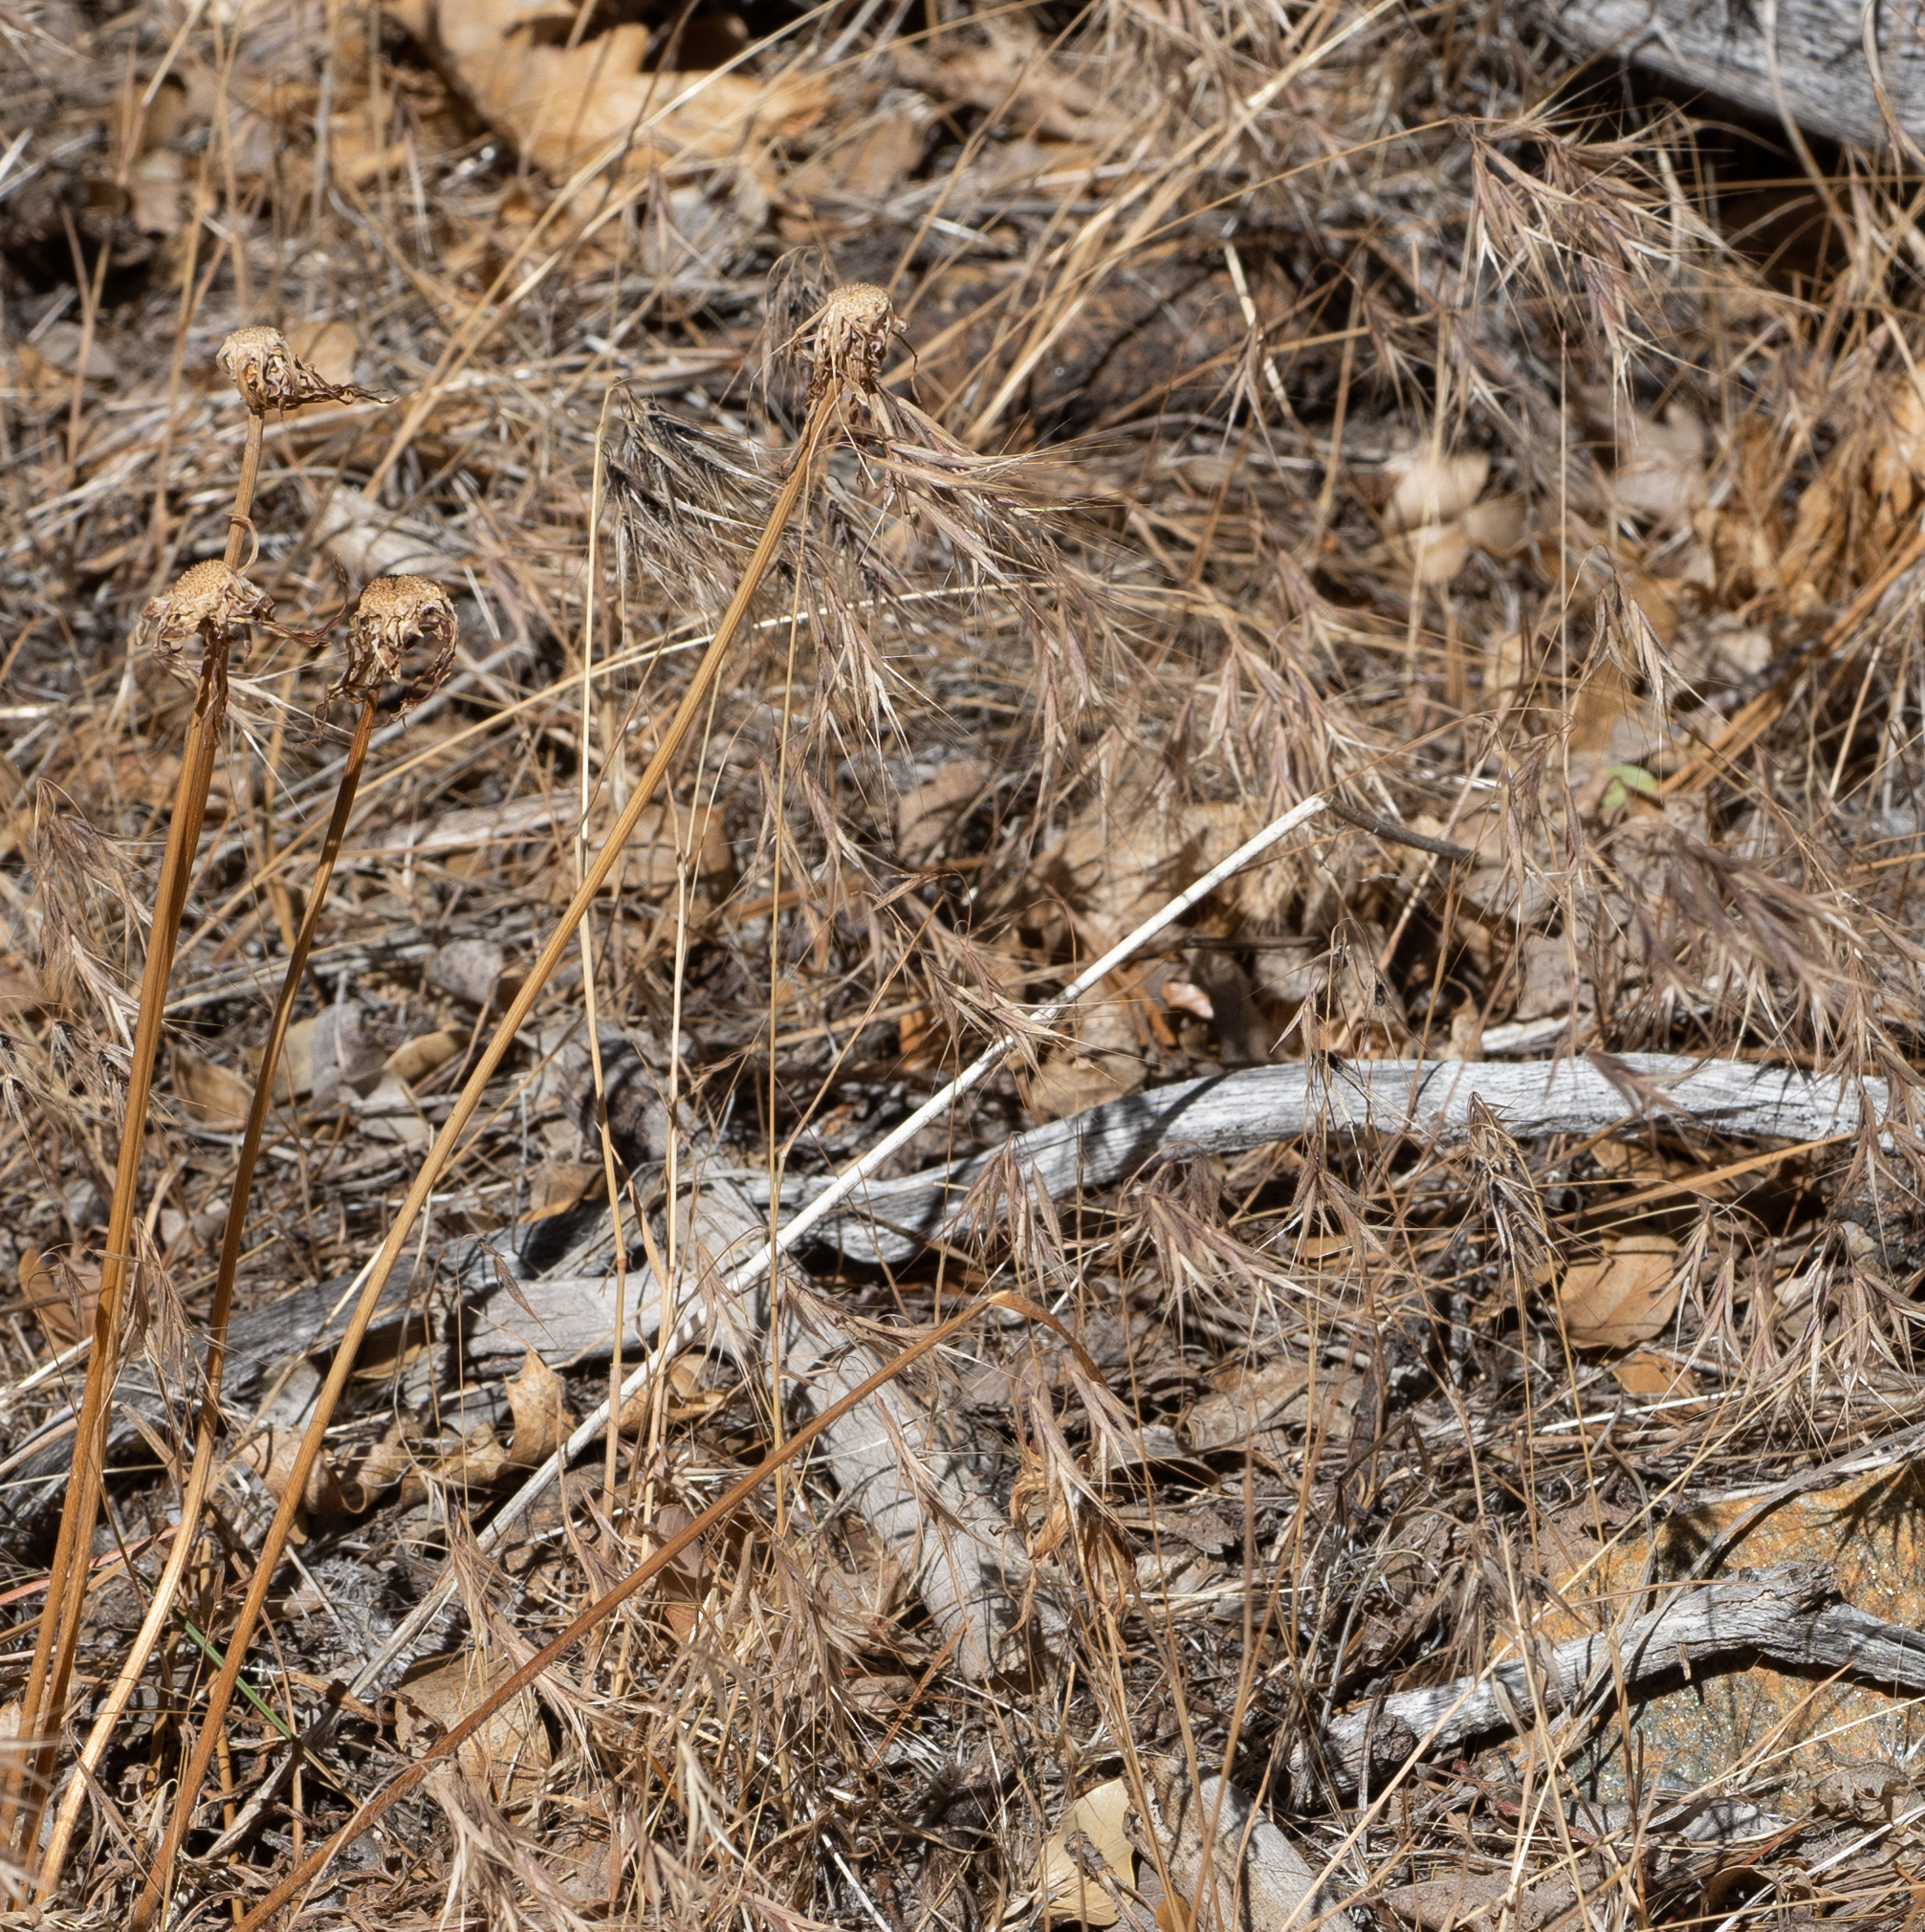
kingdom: Plantae
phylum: Tracheophyta
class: Liliopsida
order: Poales
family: Poaceae
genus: Bromus
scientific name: Bromus tectorum
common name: Cheatgrass
